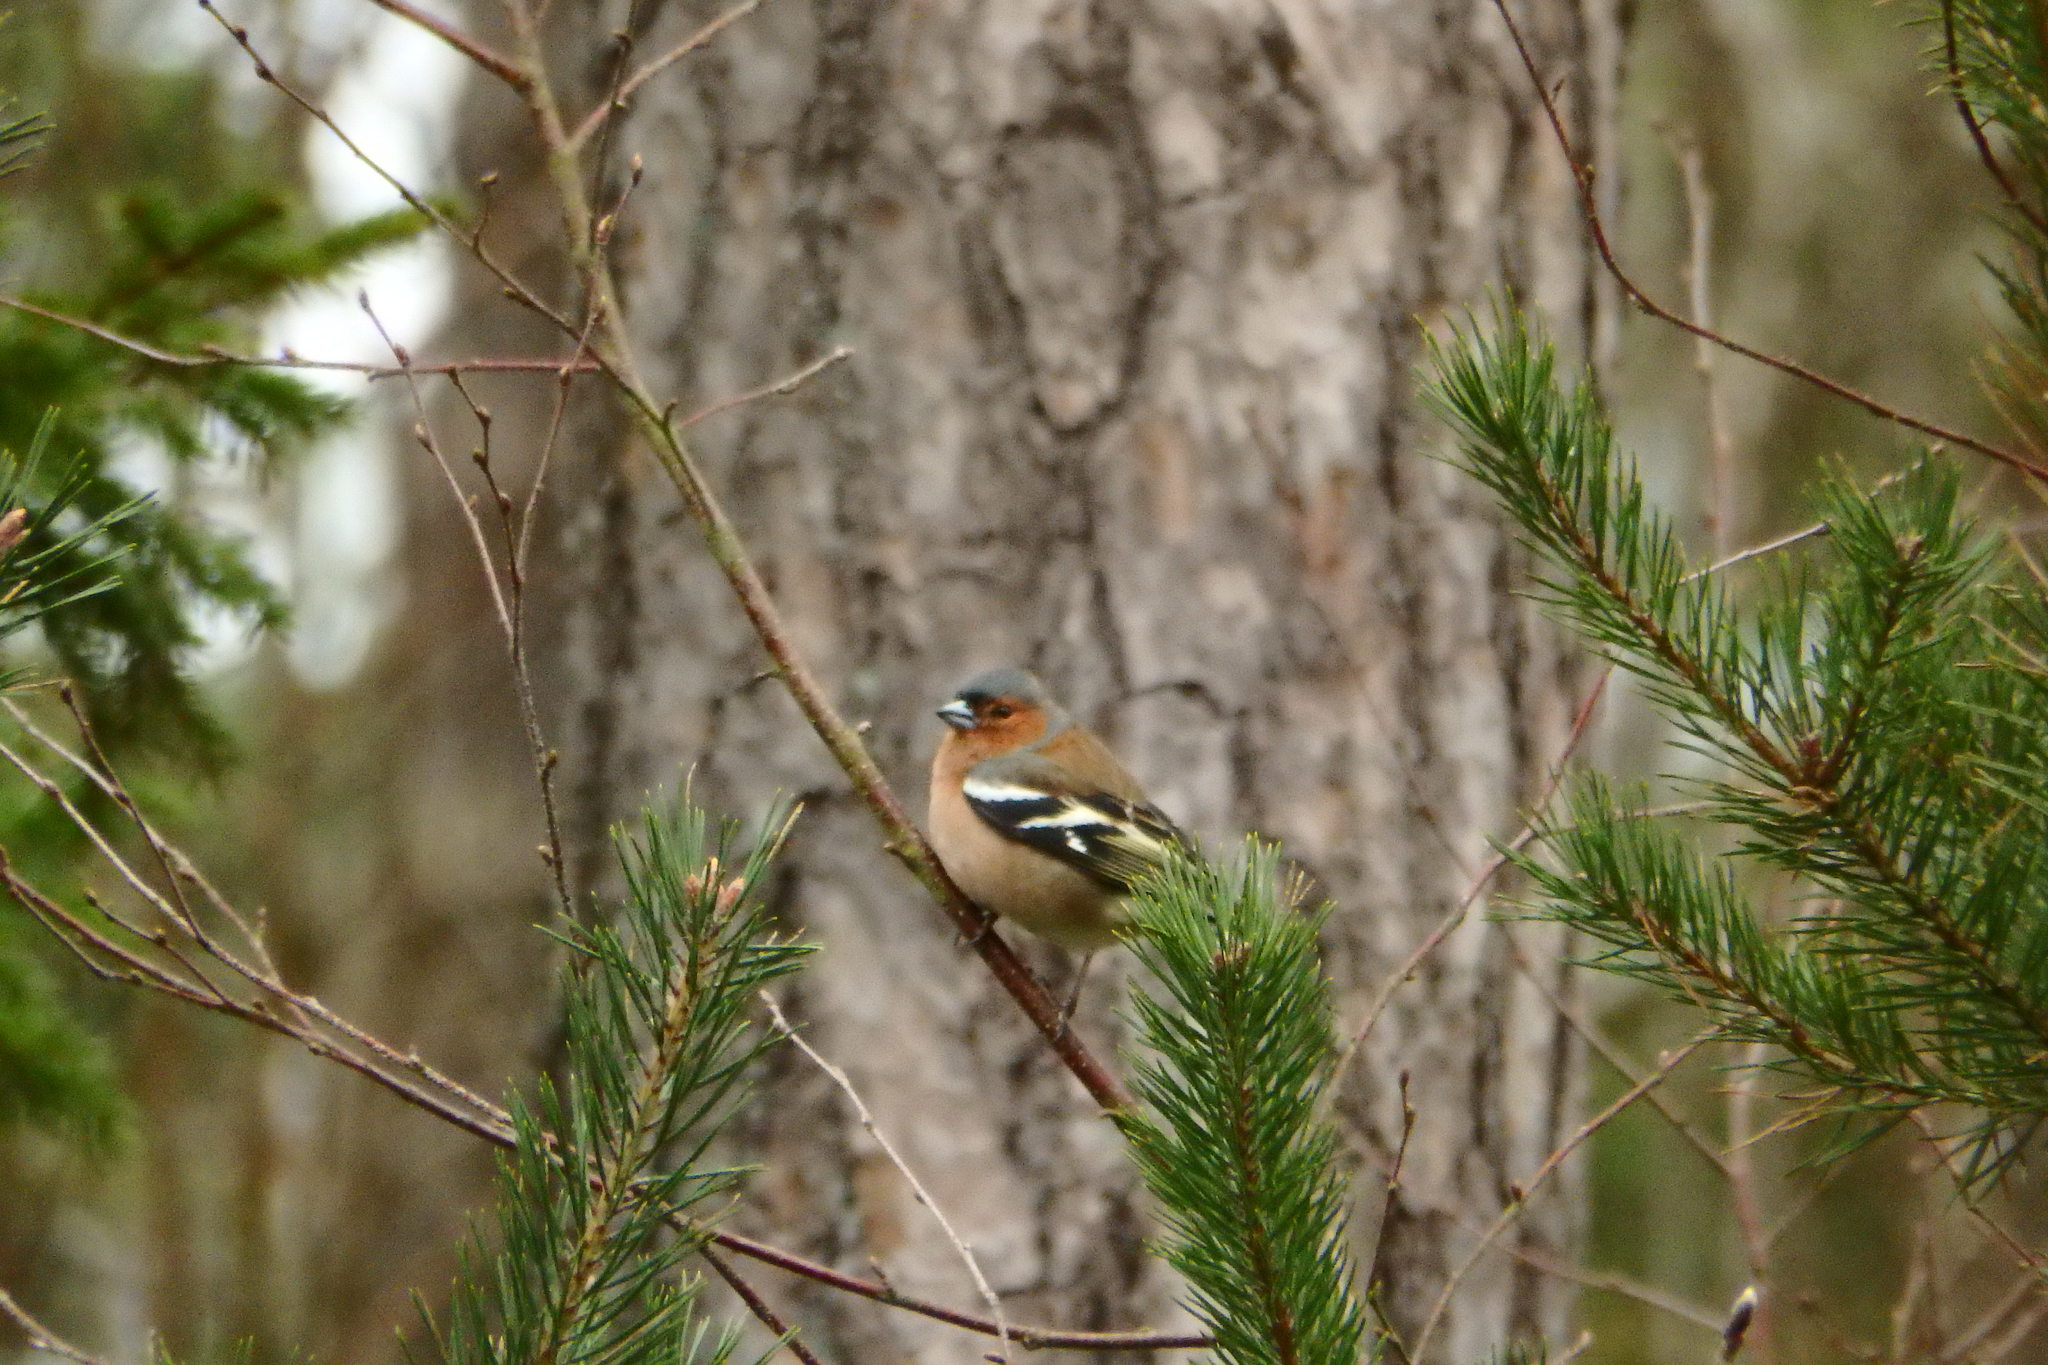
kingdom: Animalia
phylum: Chordata
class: Aves
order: Passeriformes
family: Fringillidae
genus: Fringilla
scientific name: Fringilla coelebs
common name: Common chaffinch
